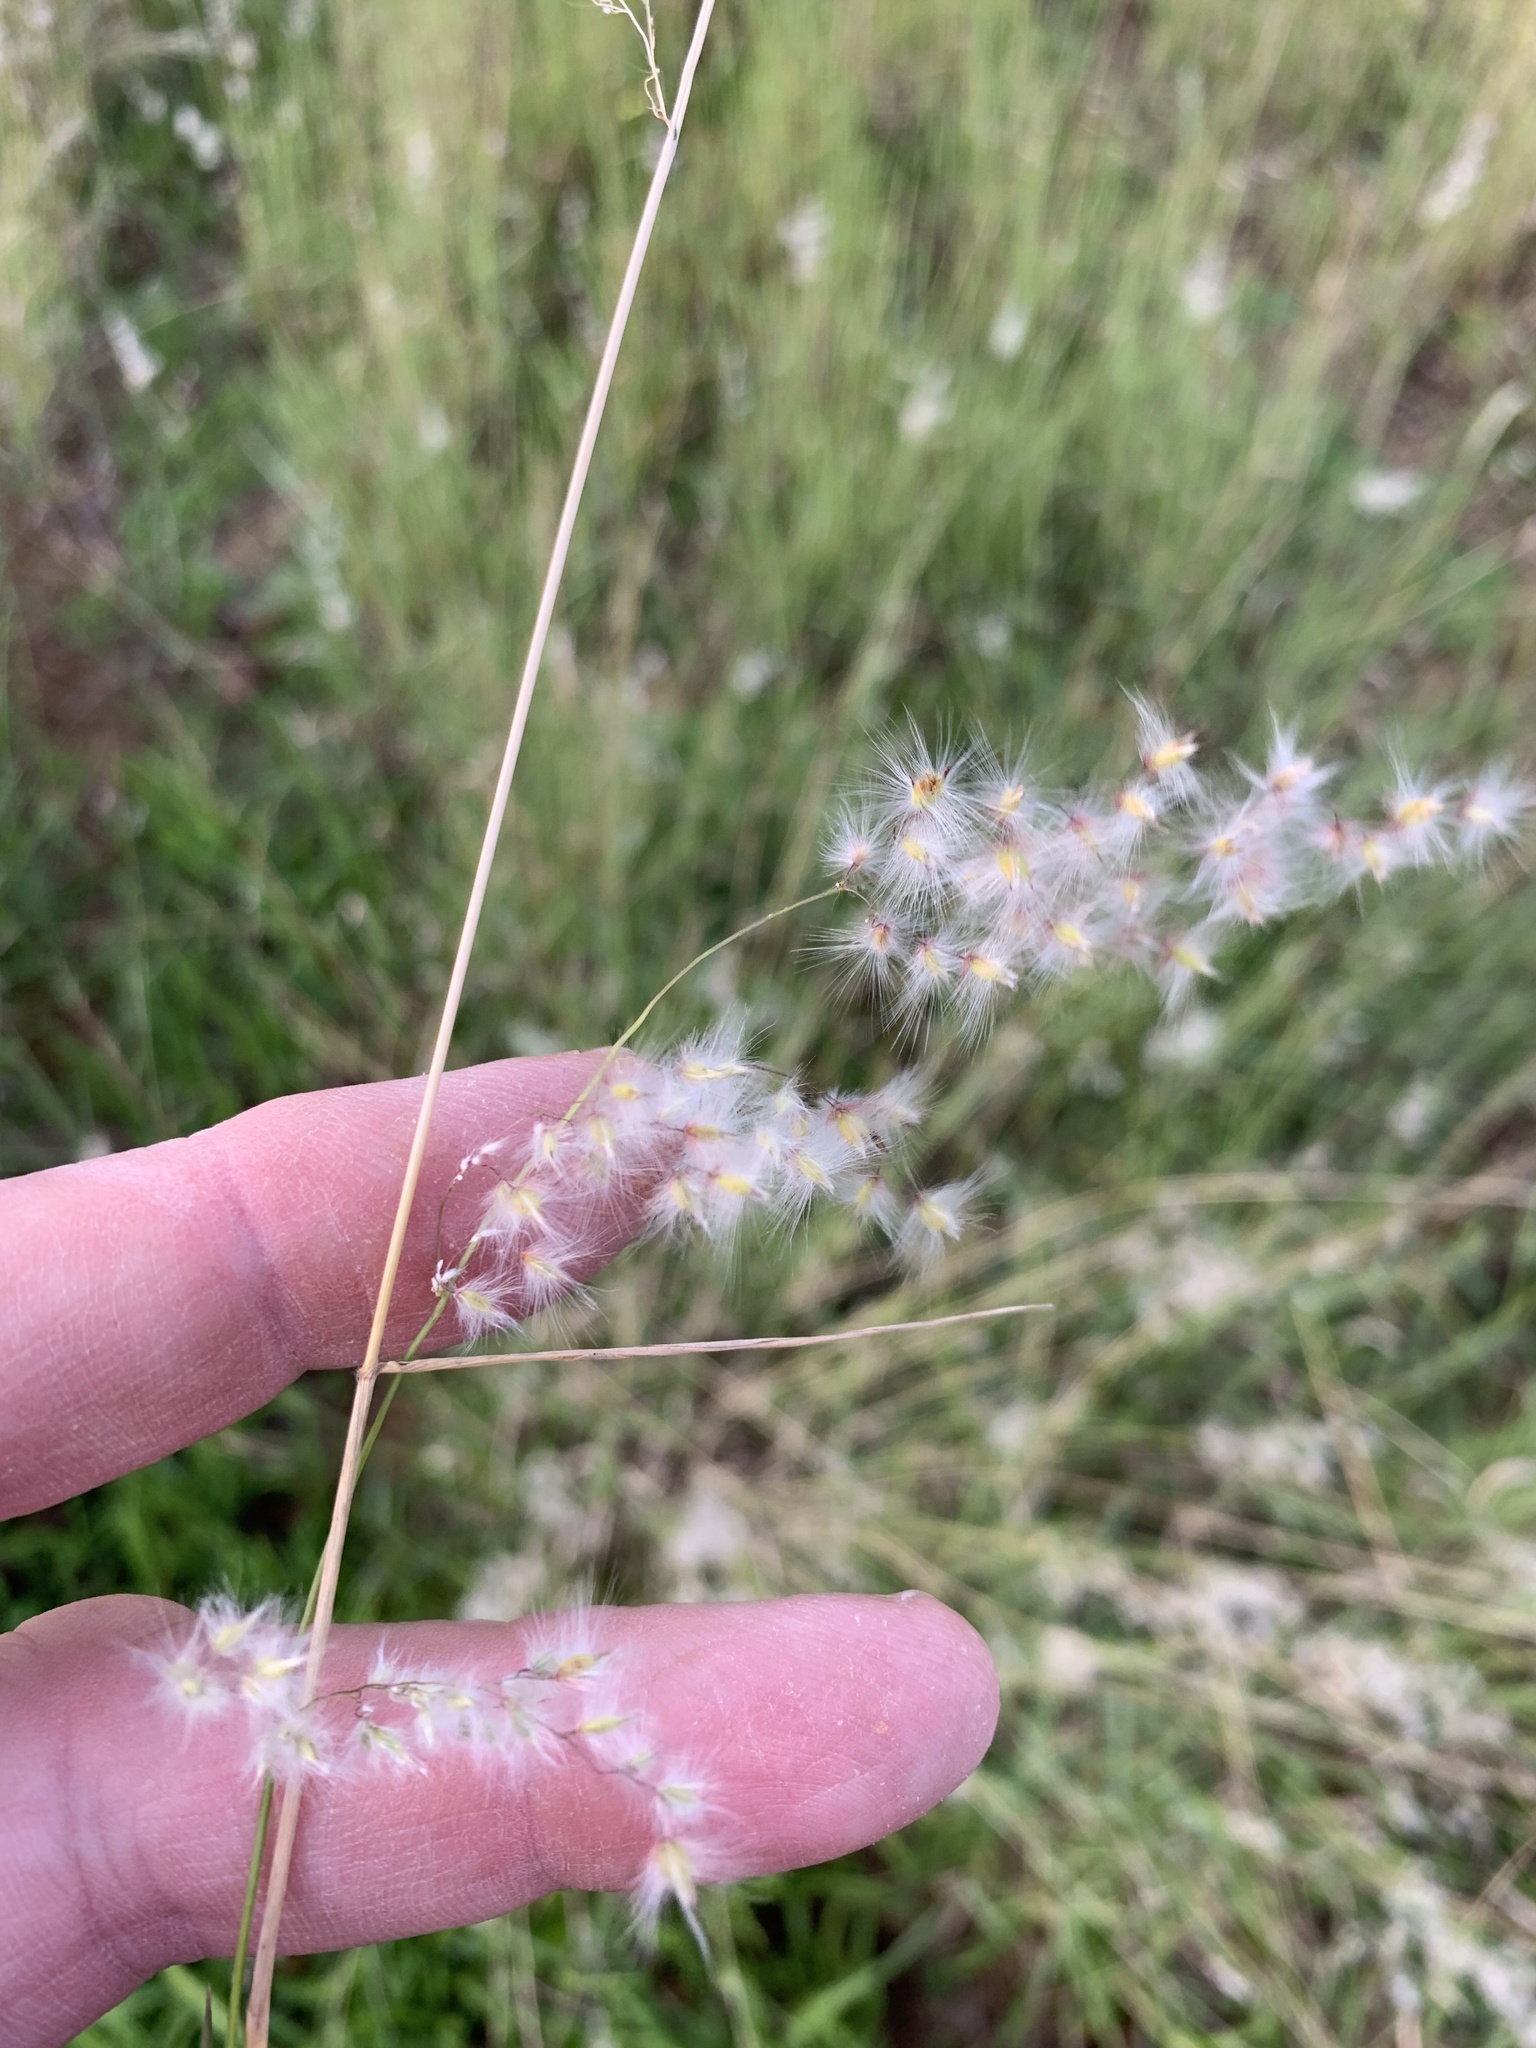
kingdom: Plantae
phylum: Tracheophyta
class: Liliopsida
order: Poales
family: Poaceae
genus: Melinis
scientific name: Melinis repens
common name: Rose natal grass
